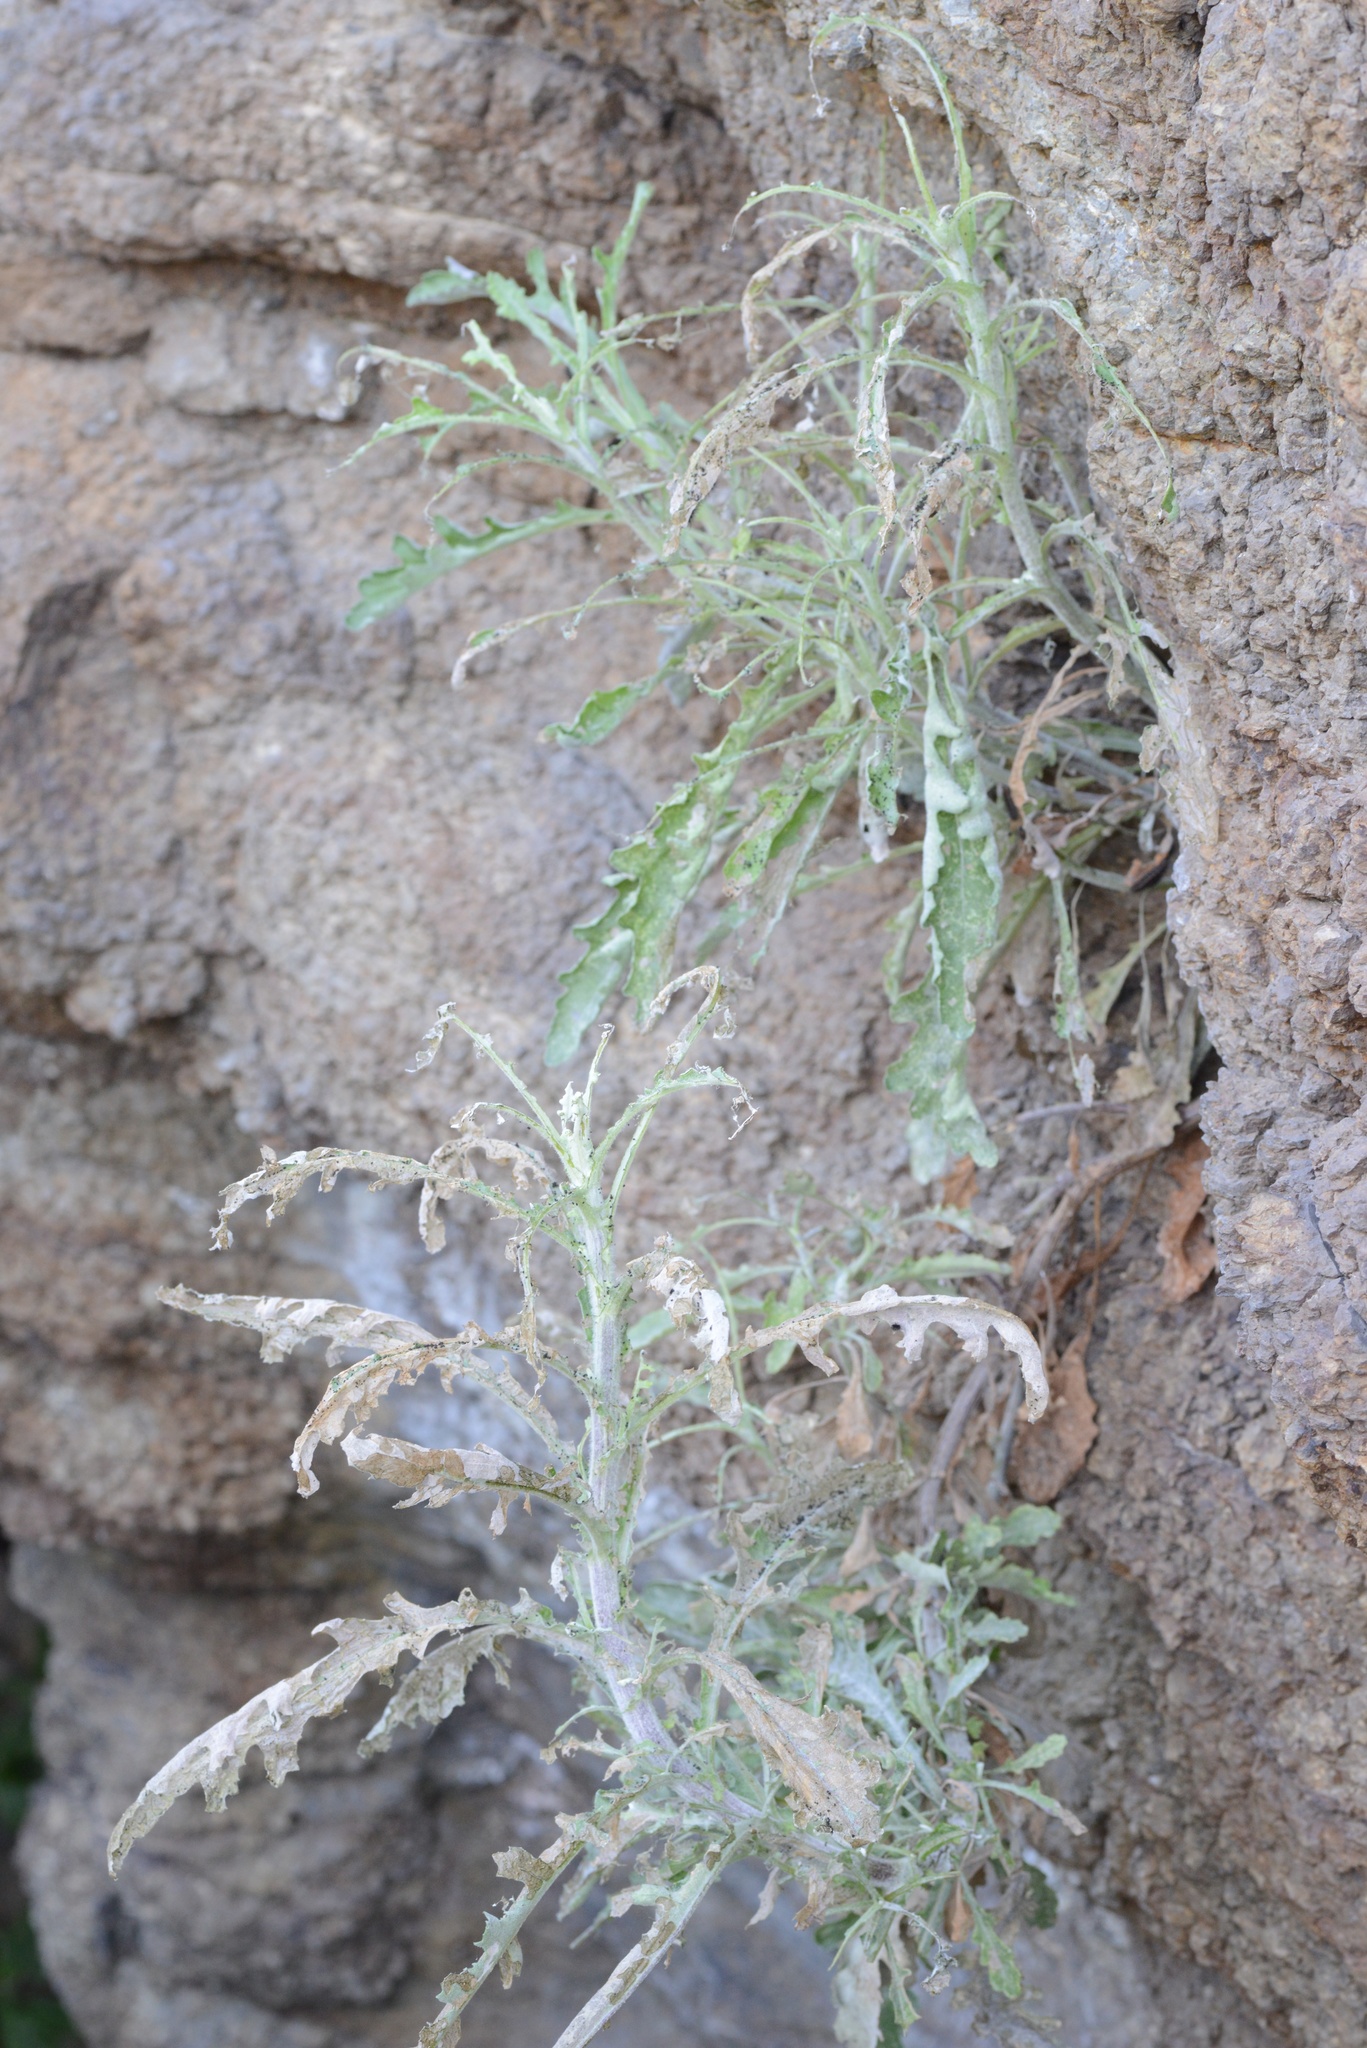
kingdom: Plantae
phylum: Tracheophyta
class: Magnoliopsida
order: Asterales
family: Asteraceae
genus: Senecio
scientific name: Senecio glomeratus
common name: Cutleaf burnweed
